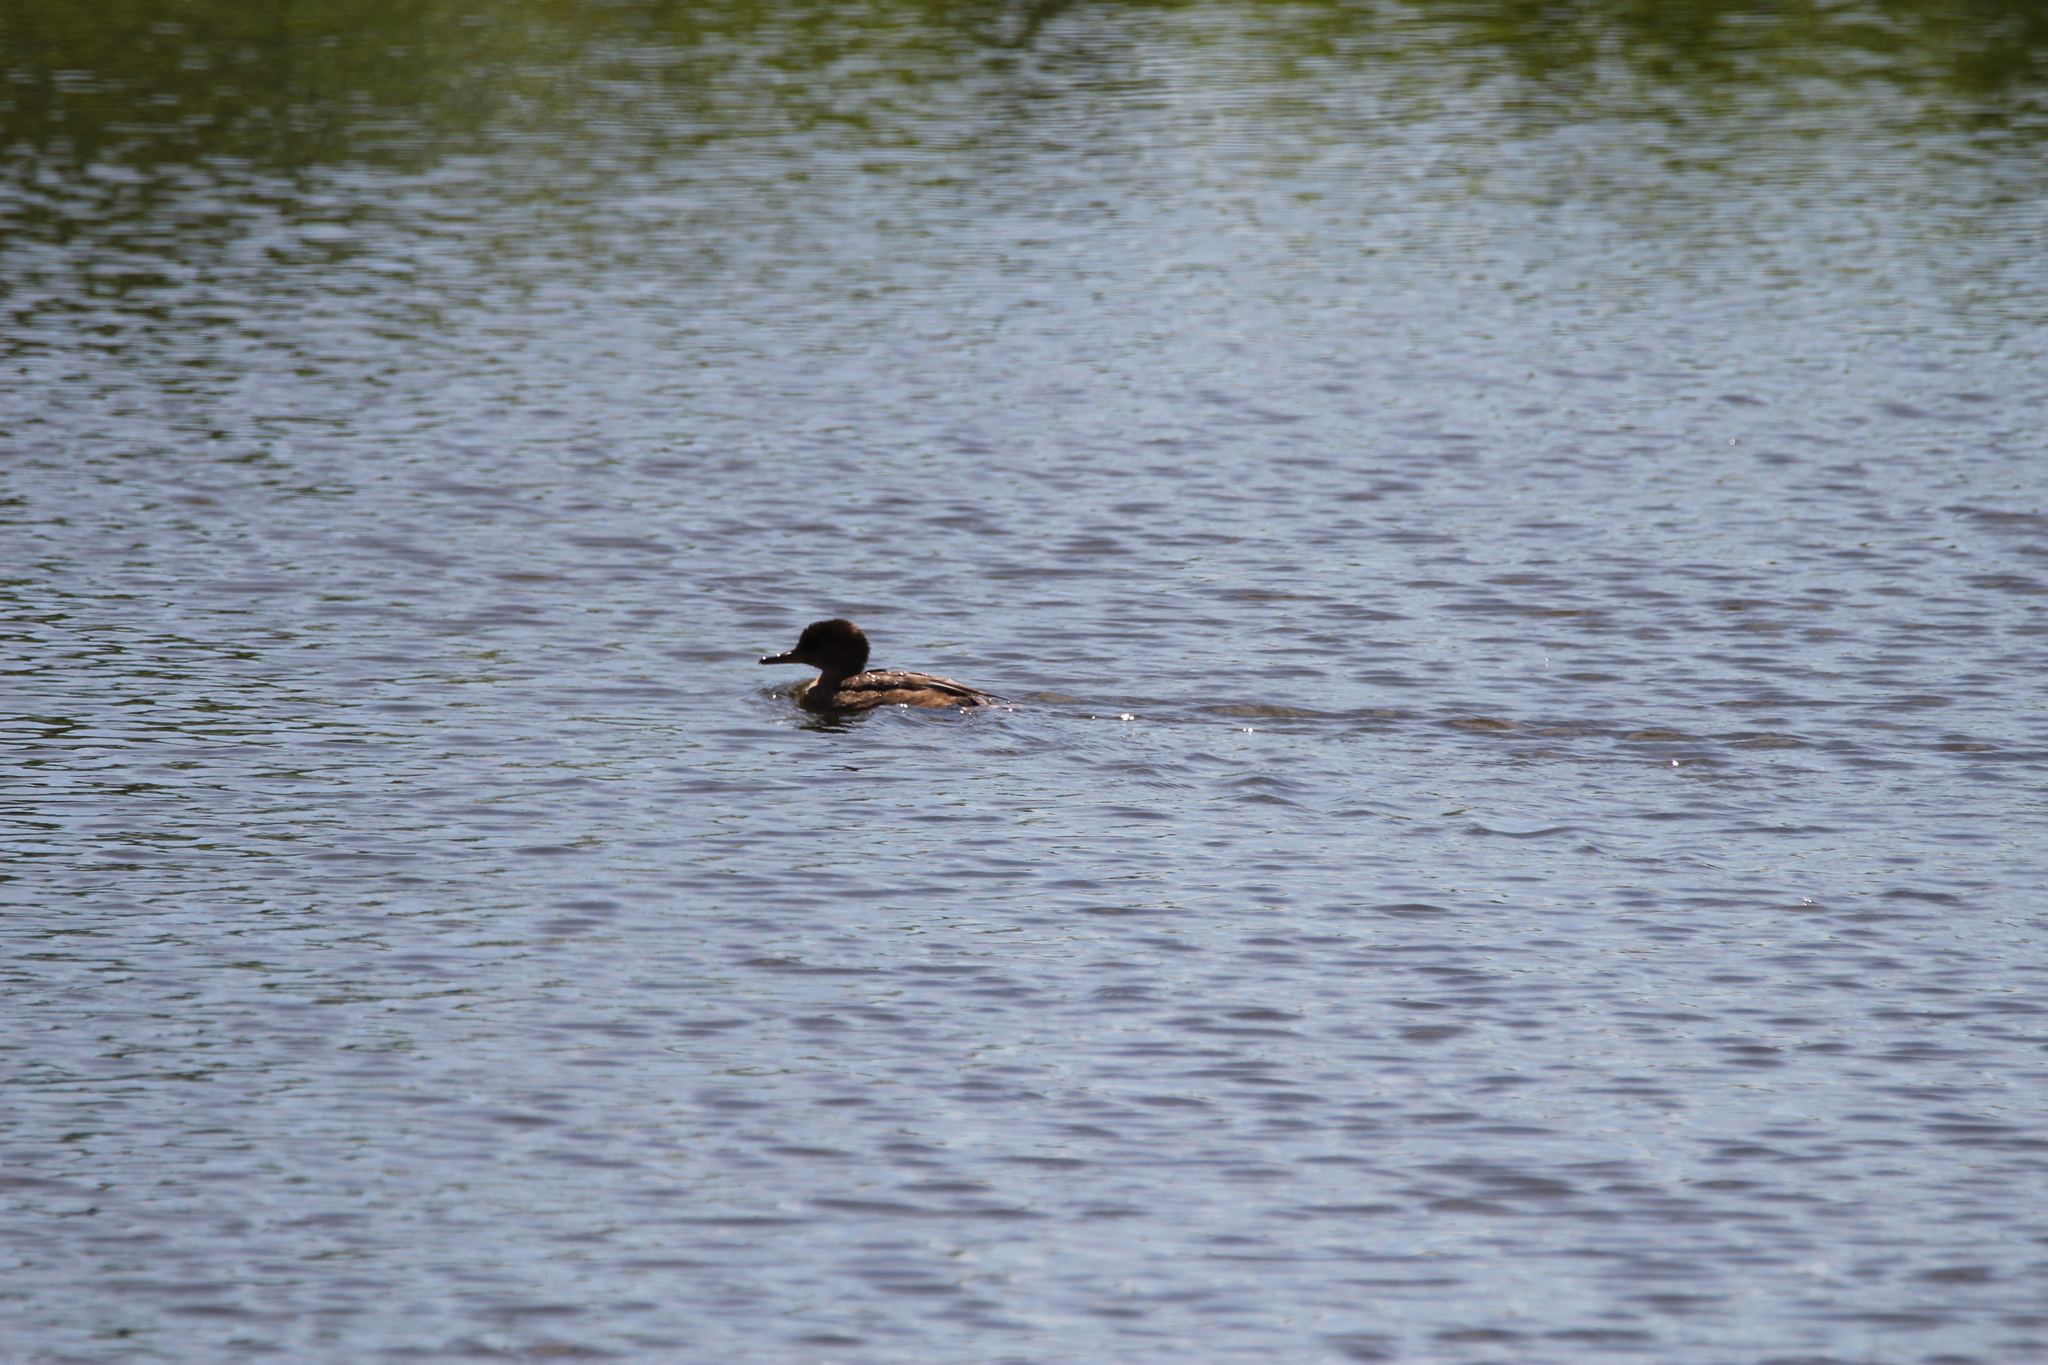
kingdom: Animalia
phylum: Chordata
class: Aves
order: Anseriformes
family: Anatidae
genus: Lophodytes
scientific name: Lophodytes cucullatus
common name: Hooded merganser
